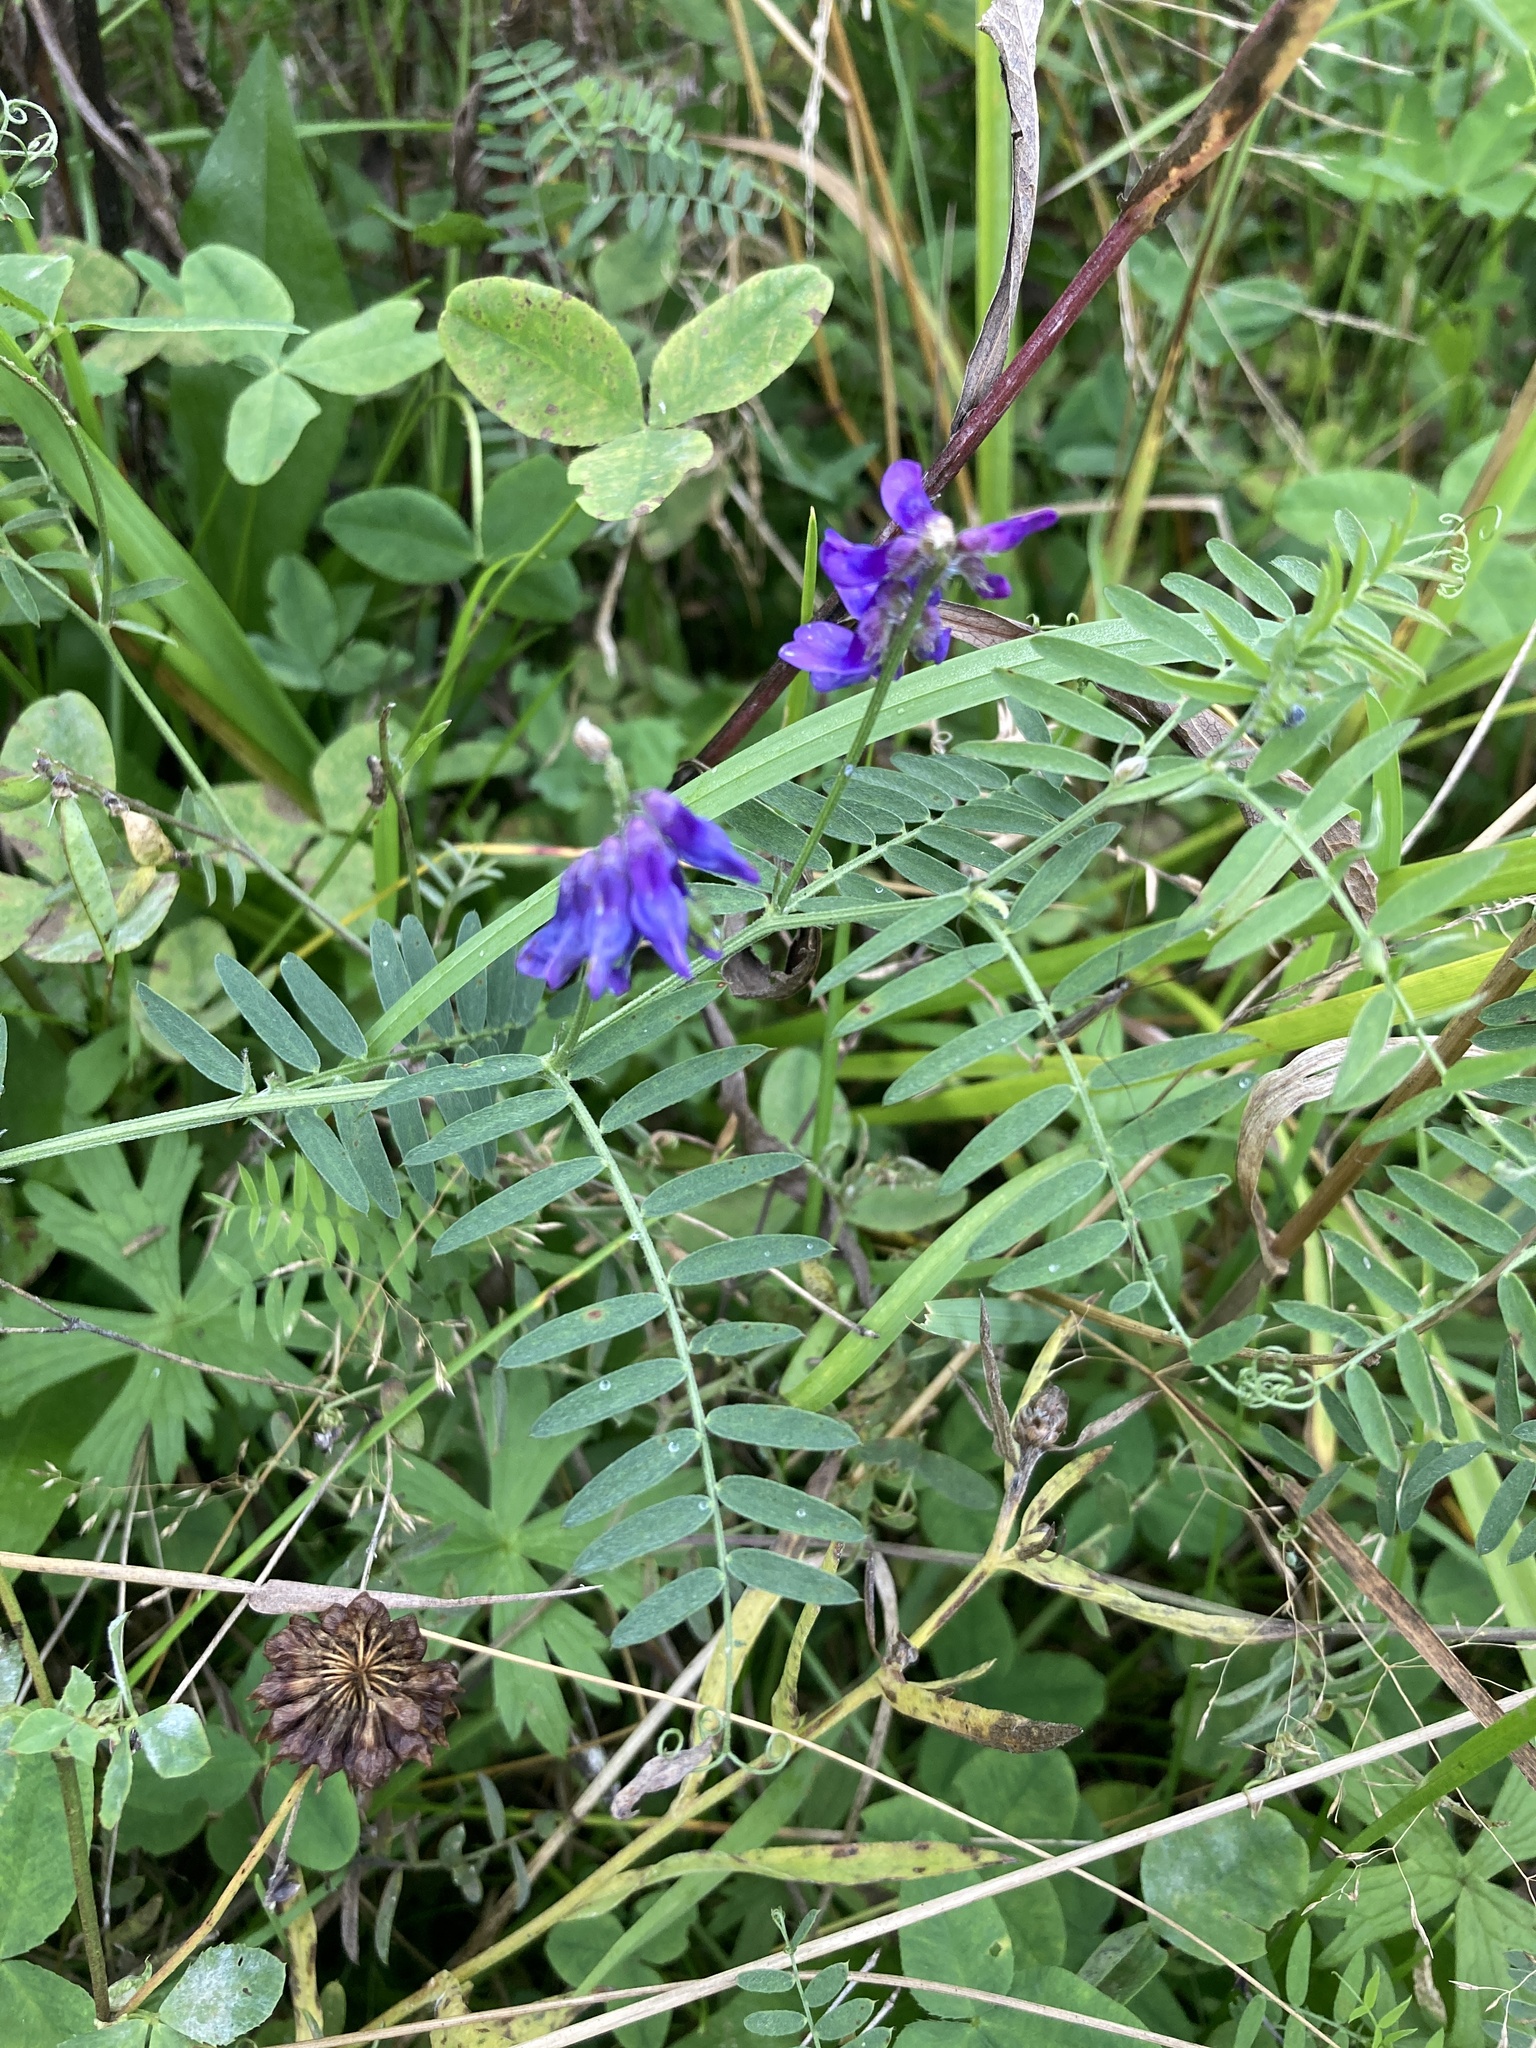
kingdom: Plantae
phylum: Tracheophyta
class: Magnoliopsida
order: Fabales
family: Fabaceae
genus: Vicia
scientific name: Vicia cracca
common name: Bird vetch
